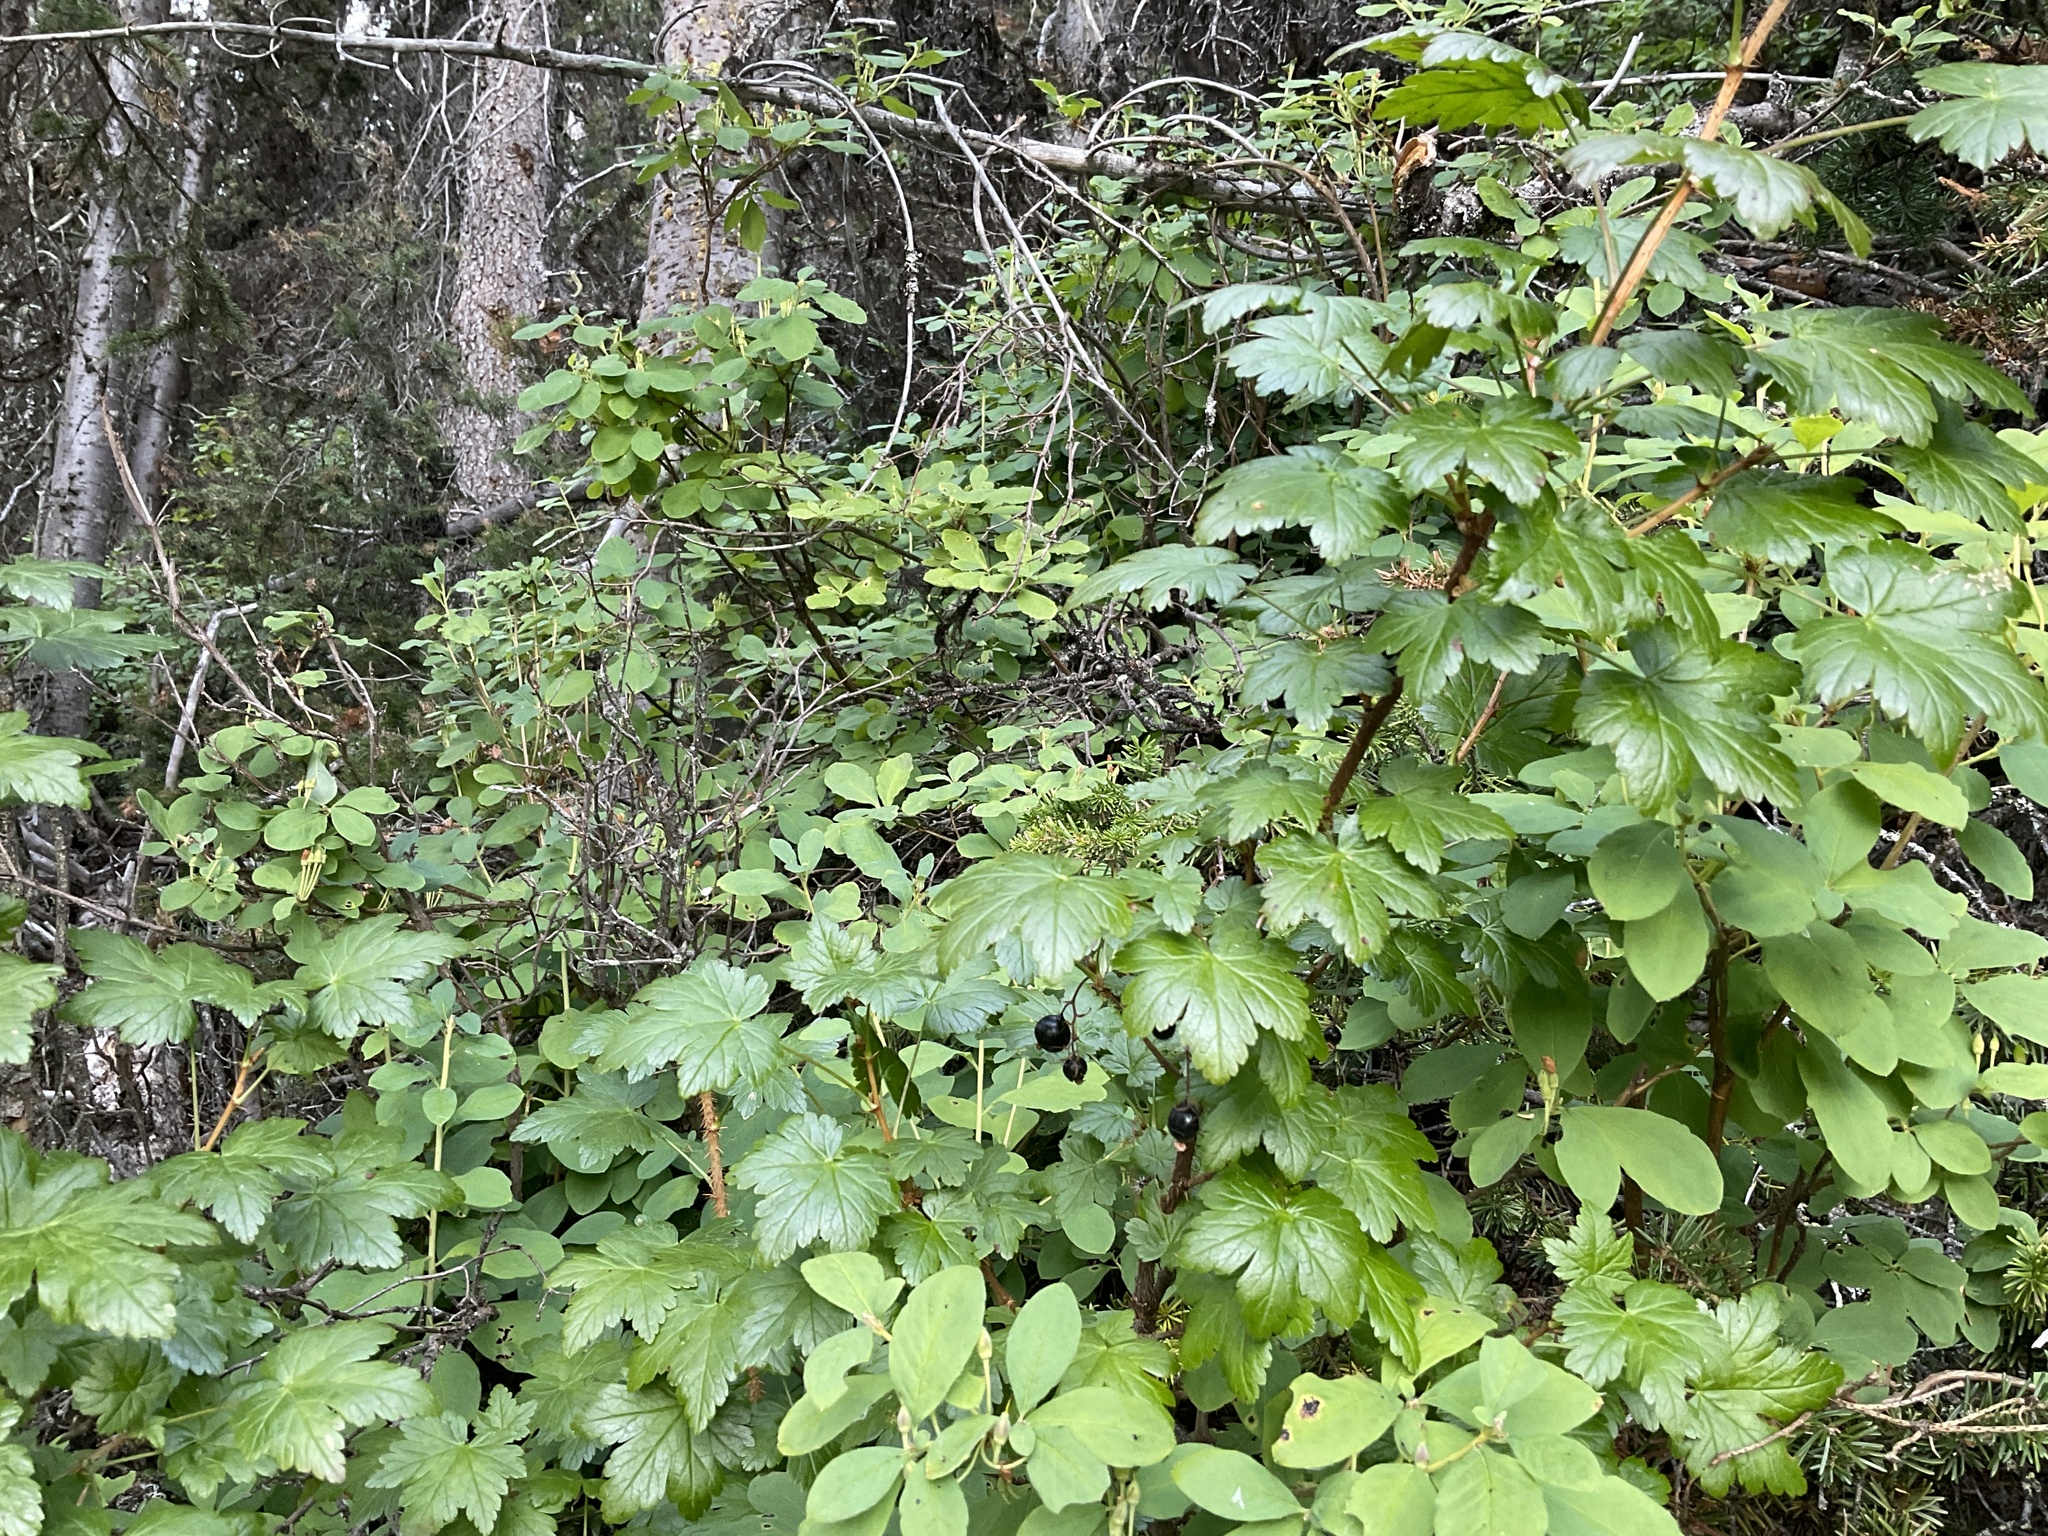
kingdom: Plantae
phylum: Tracheophyta
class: Magnoliopsida
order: Saxifragales
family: Grossulariaceae
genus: Ribes
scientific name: Ribes lacustre
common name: Black gooseberry
